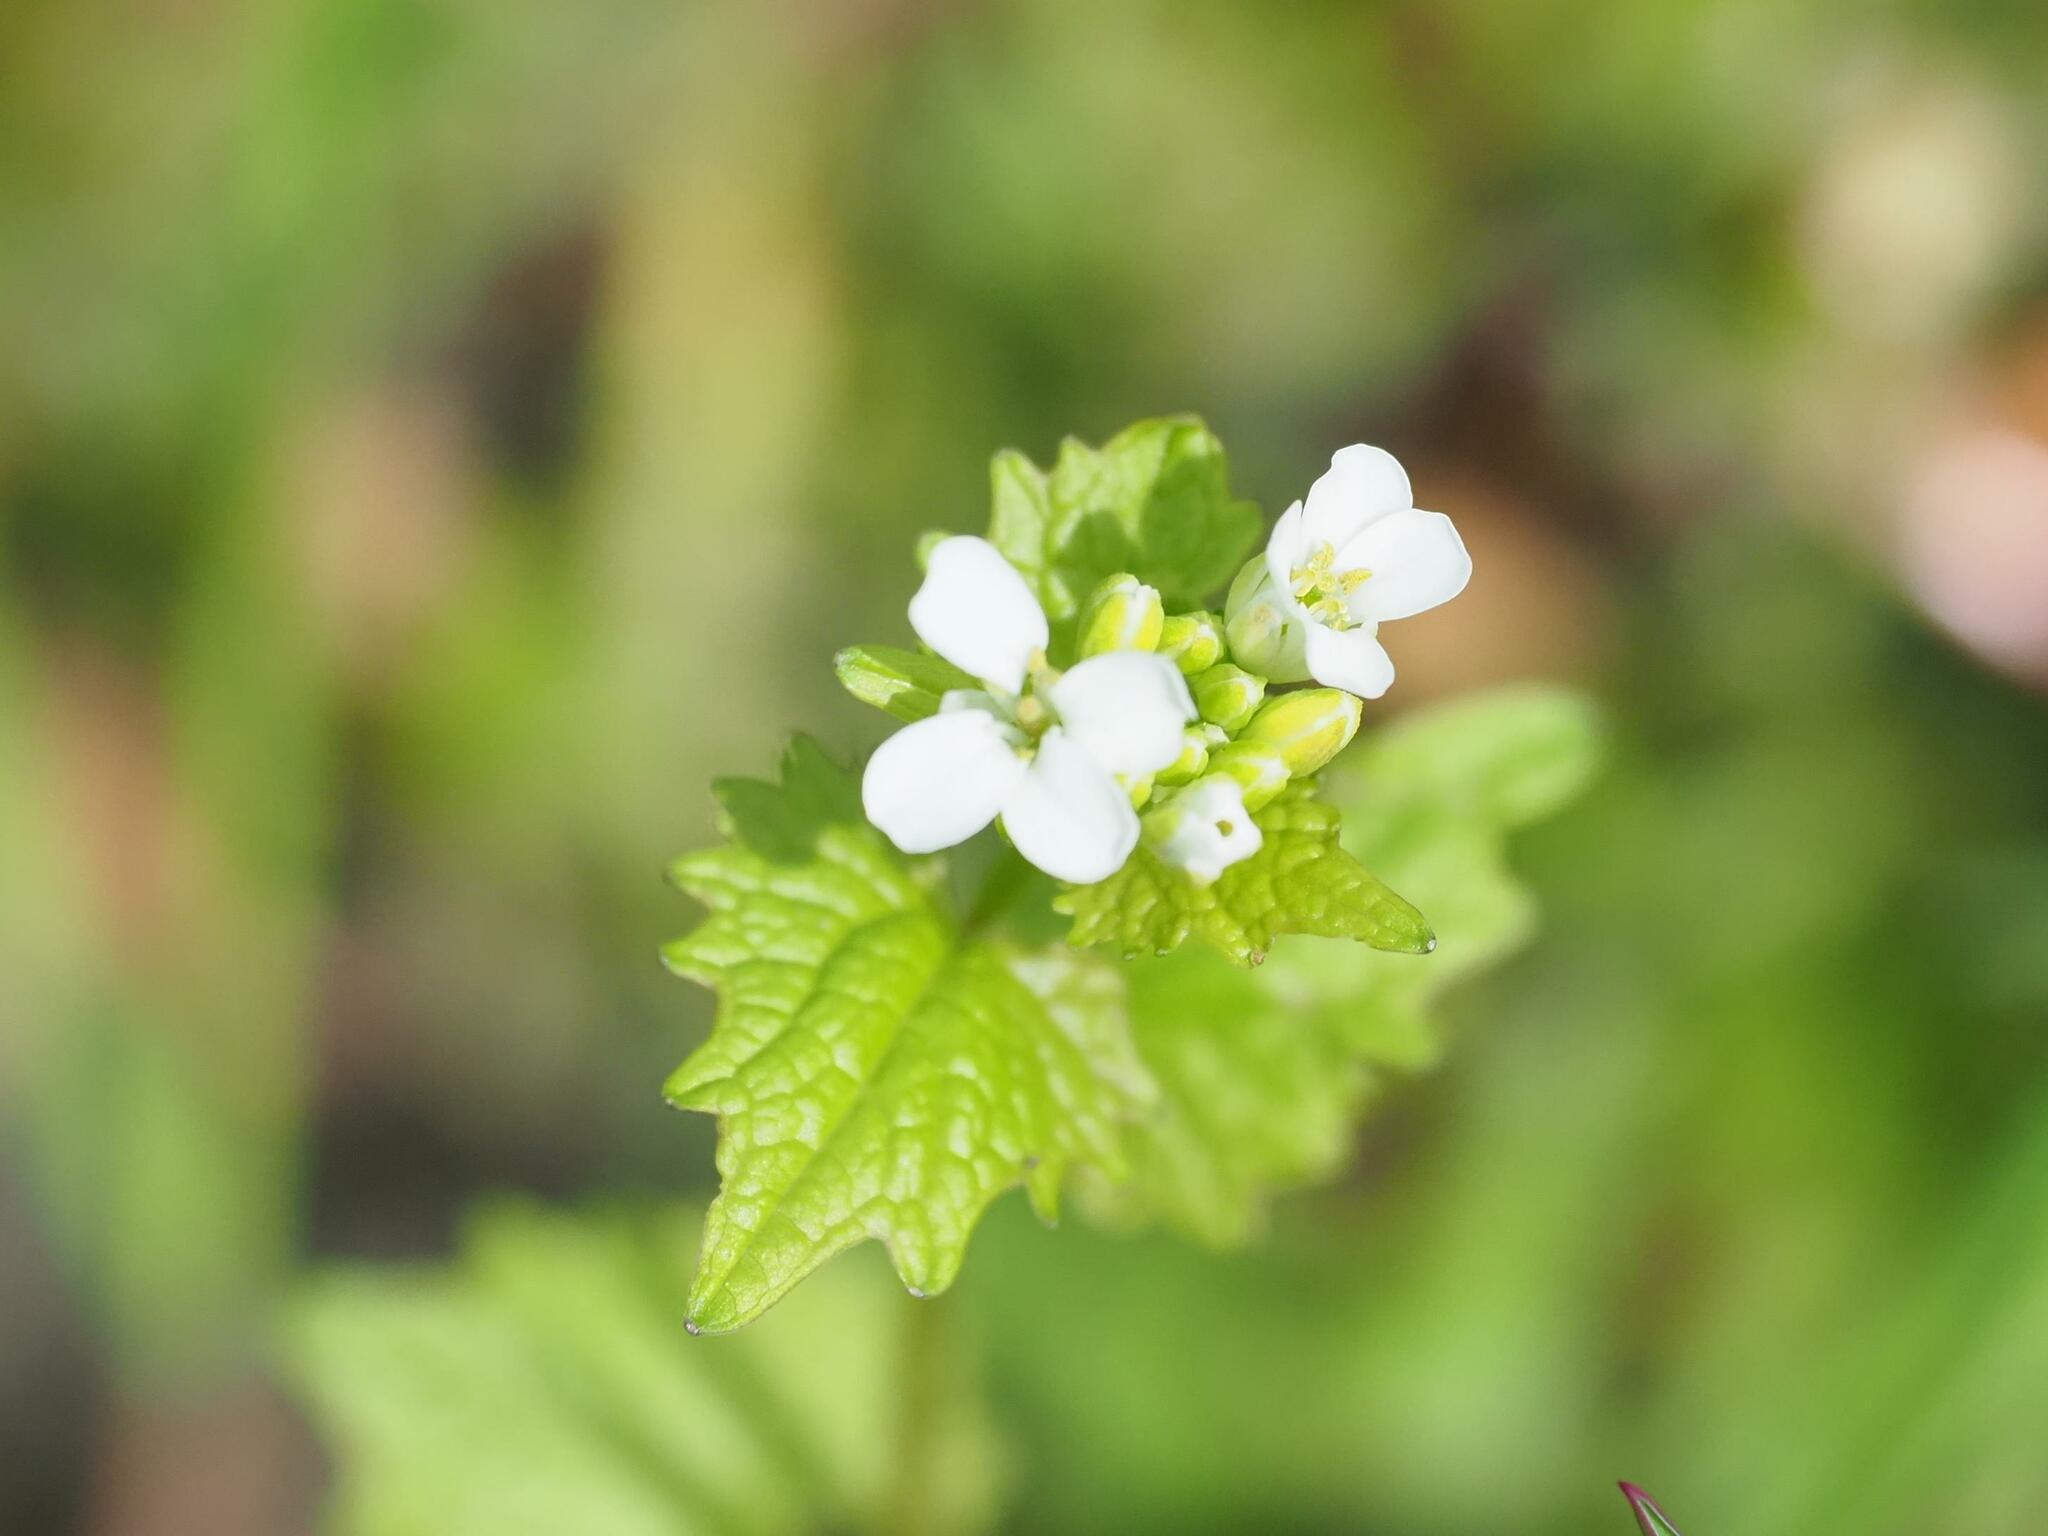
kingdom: Plantae
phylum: Tracheophyta
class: Magnoliopsida
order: Brassicales
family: Brassicaceae
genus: Alliaria
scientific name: Alliaria petiolata
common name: Garlic mustard
